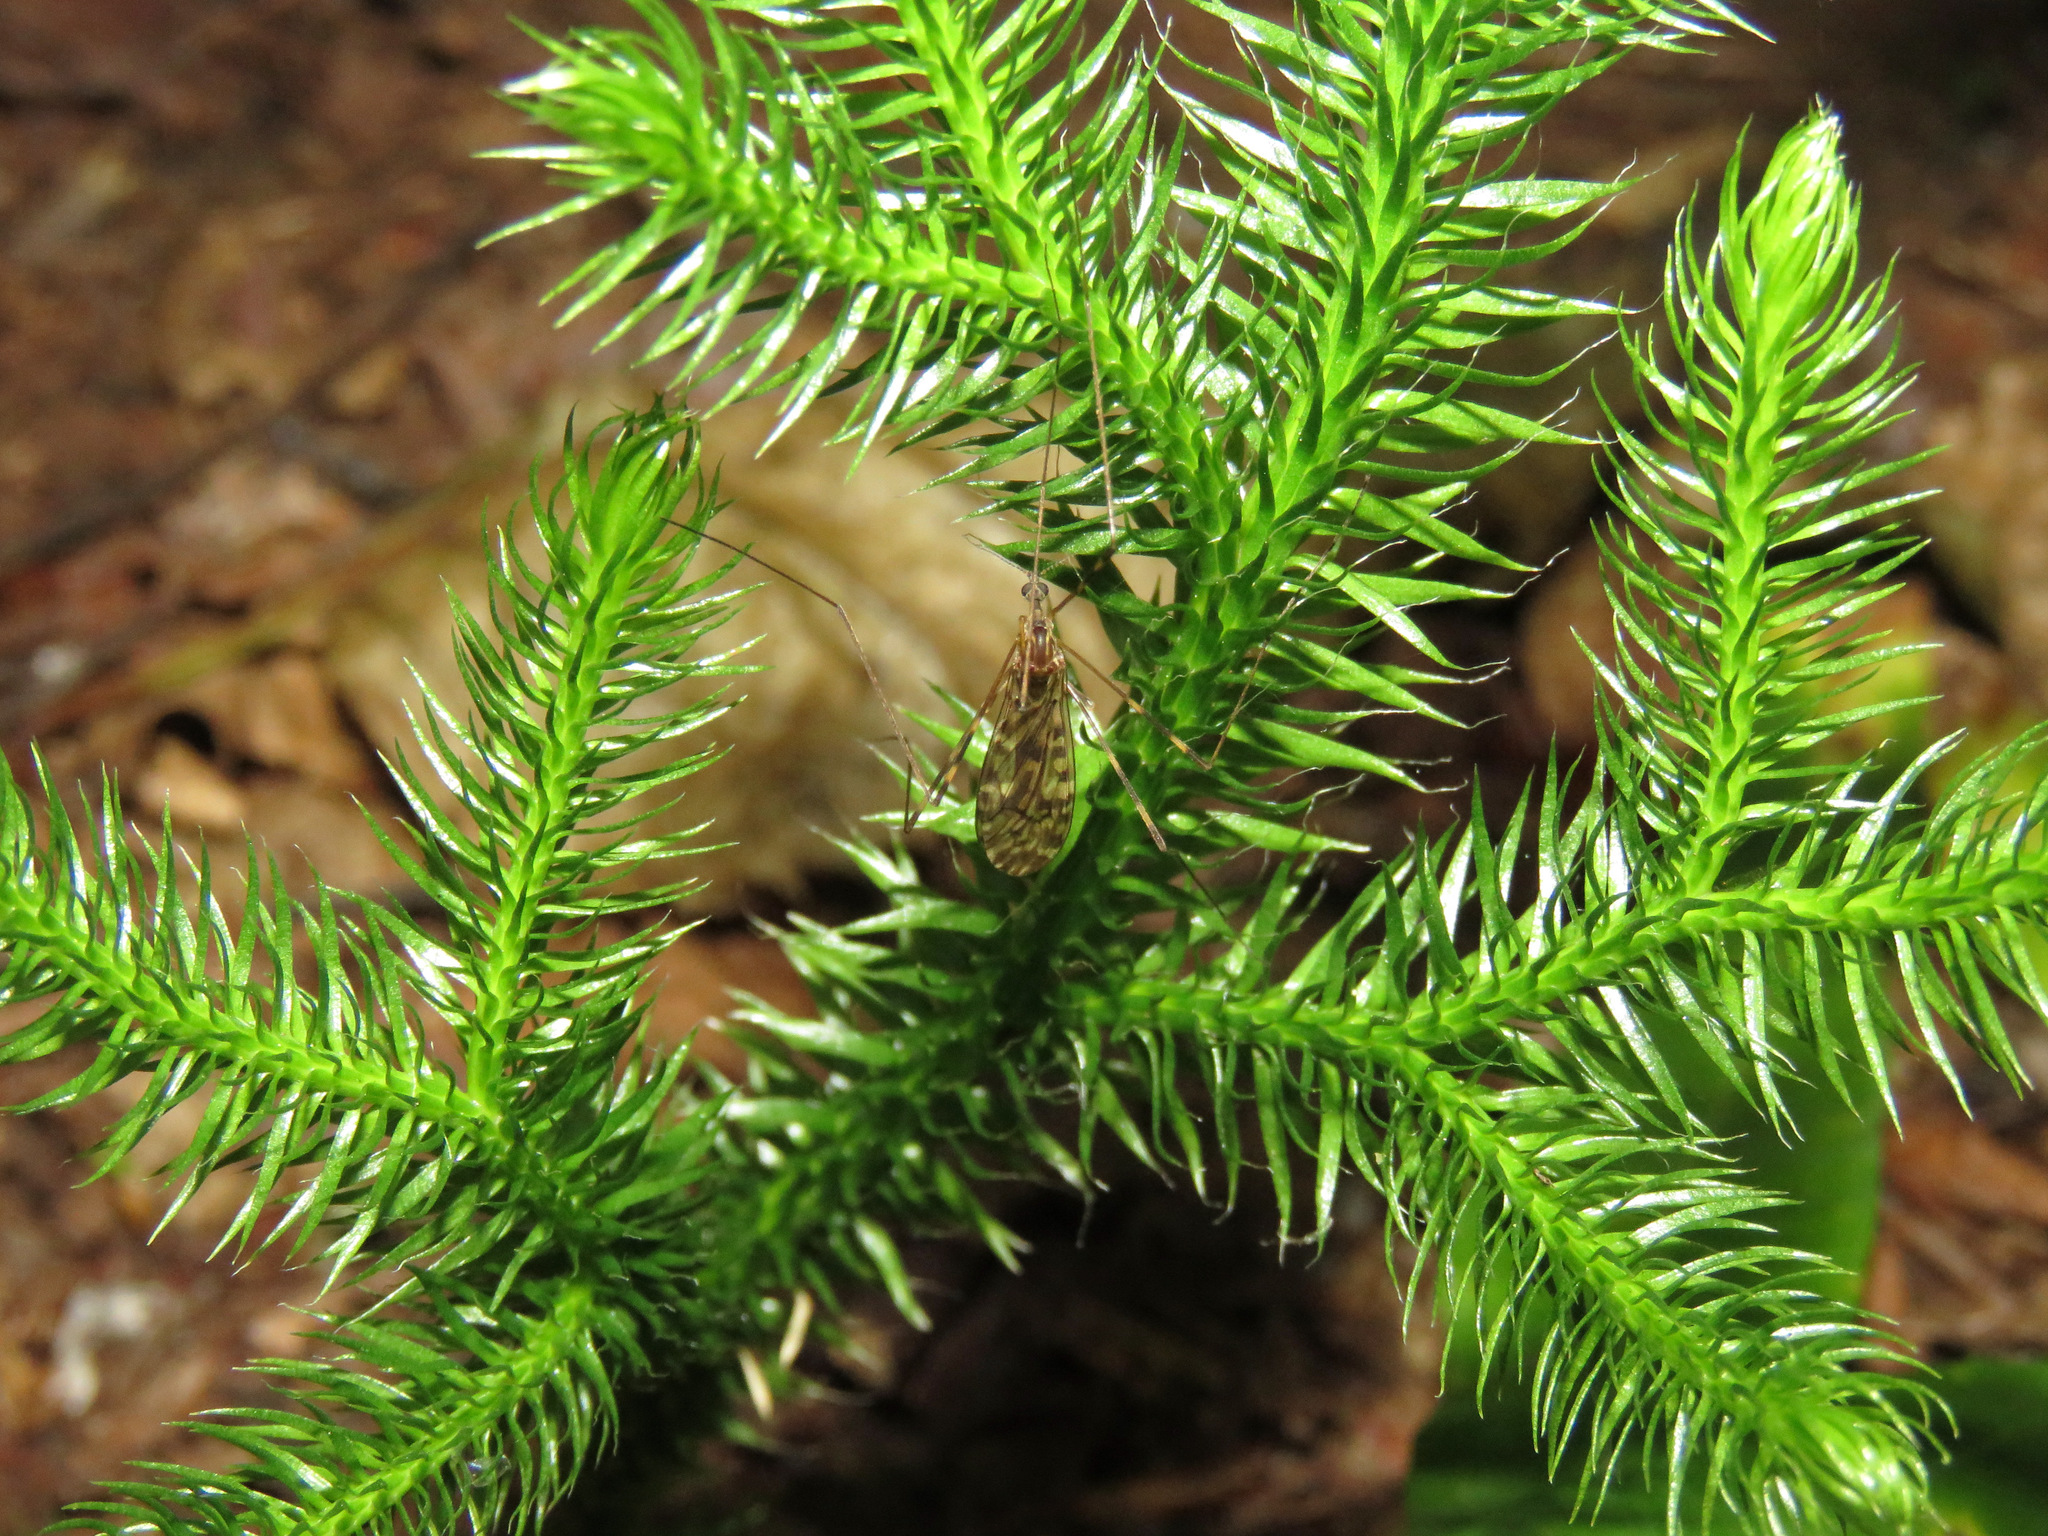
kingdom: Plantae
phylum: Tracheophyta
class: Lycopodiopsida
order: Lycopodiales
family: Lycopodiaceae
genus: Lycopodium
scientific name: Lycopodium clavatum
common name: Stag's-horn clubmoss
